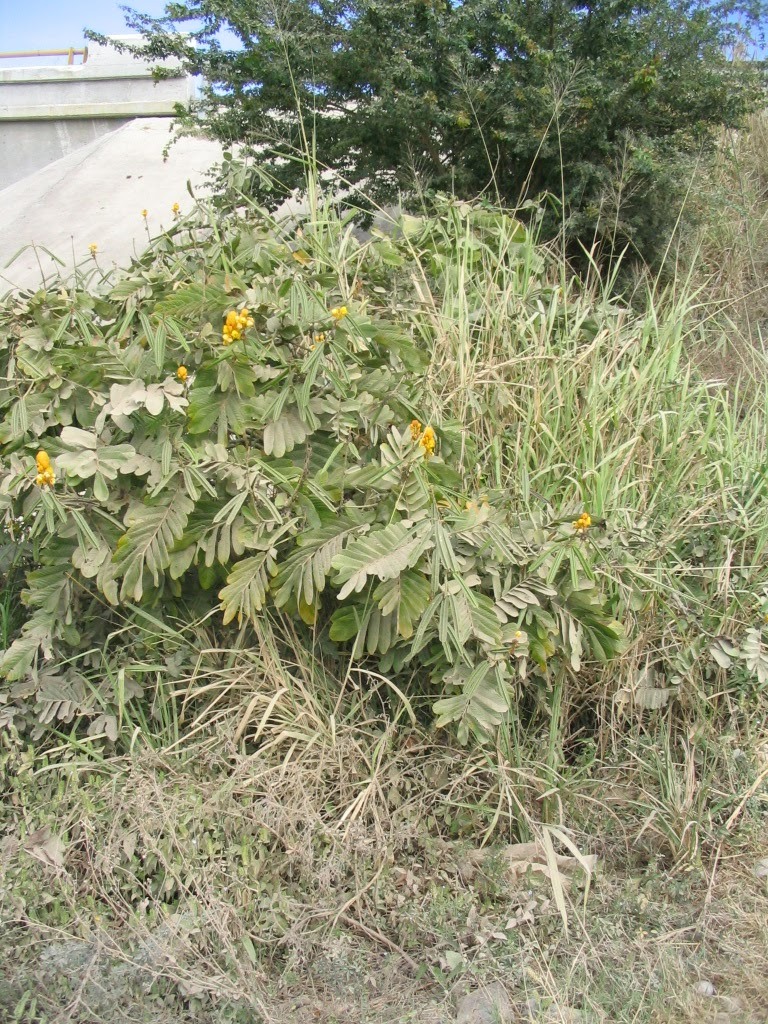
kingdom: Plantae
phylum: Tracheophyta
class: Magnoliopsida
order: Fabales
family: Fabaceae
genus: Senna
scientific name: Senna alata
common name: Emperor's candlesticks
